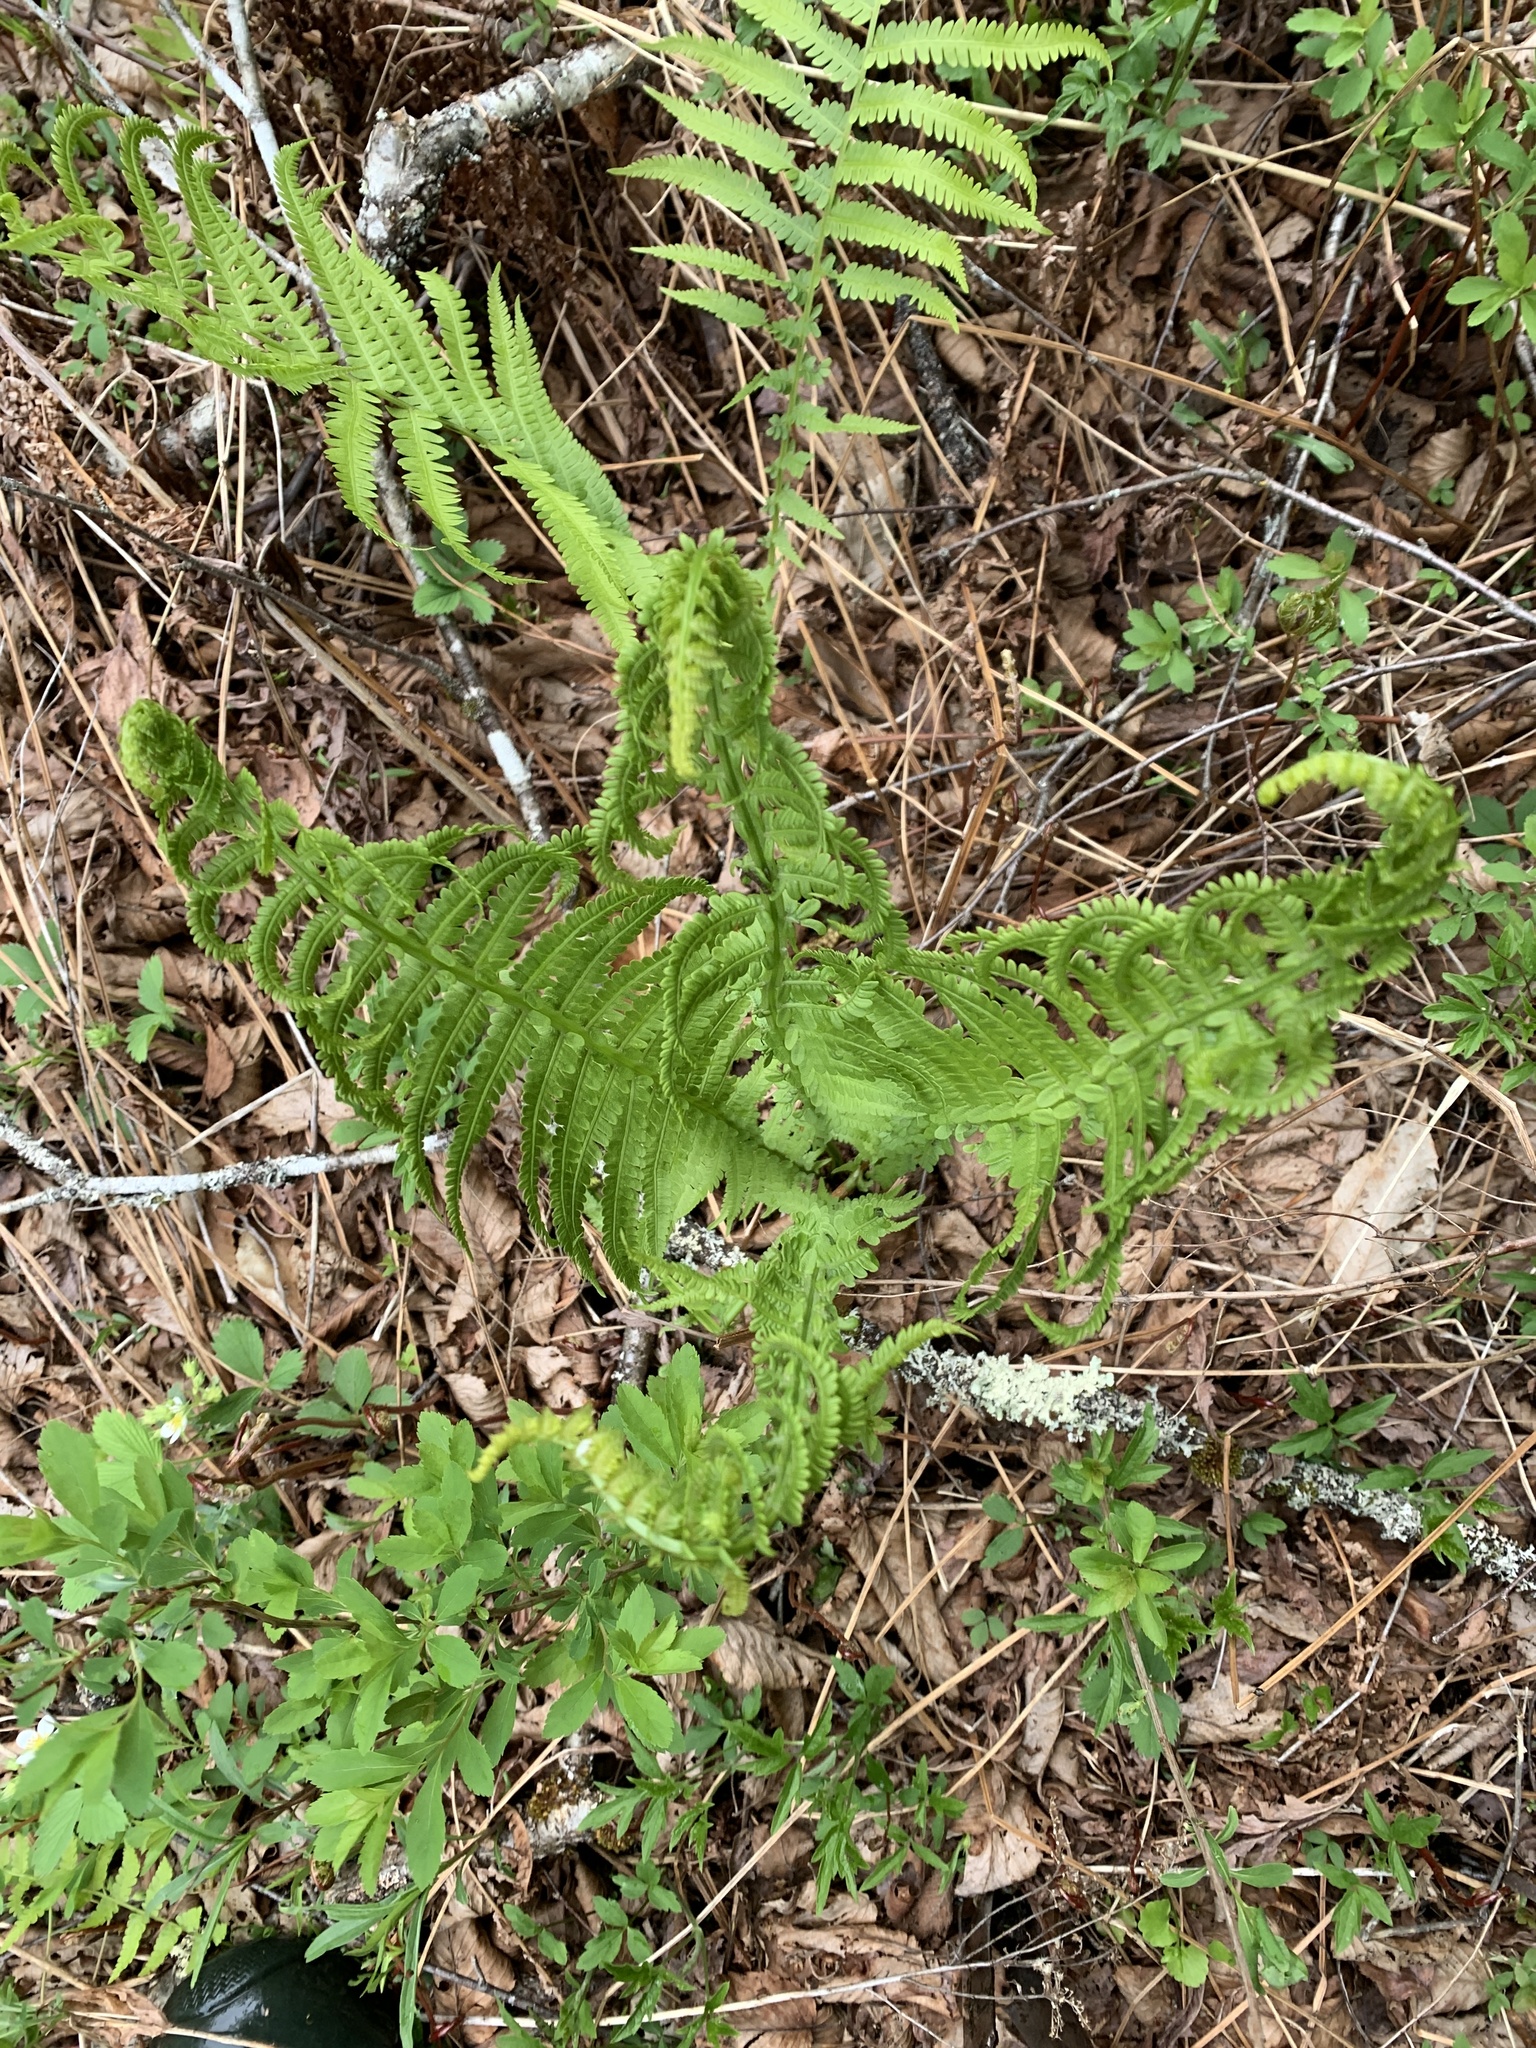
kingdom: Plantae
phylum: Tracheophyta
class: Polypodiopsida
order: Polypodiales
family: Onocleaceae
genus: Matteuccia
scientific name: Matteuccia struthiopteris
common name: Ostrich fern
